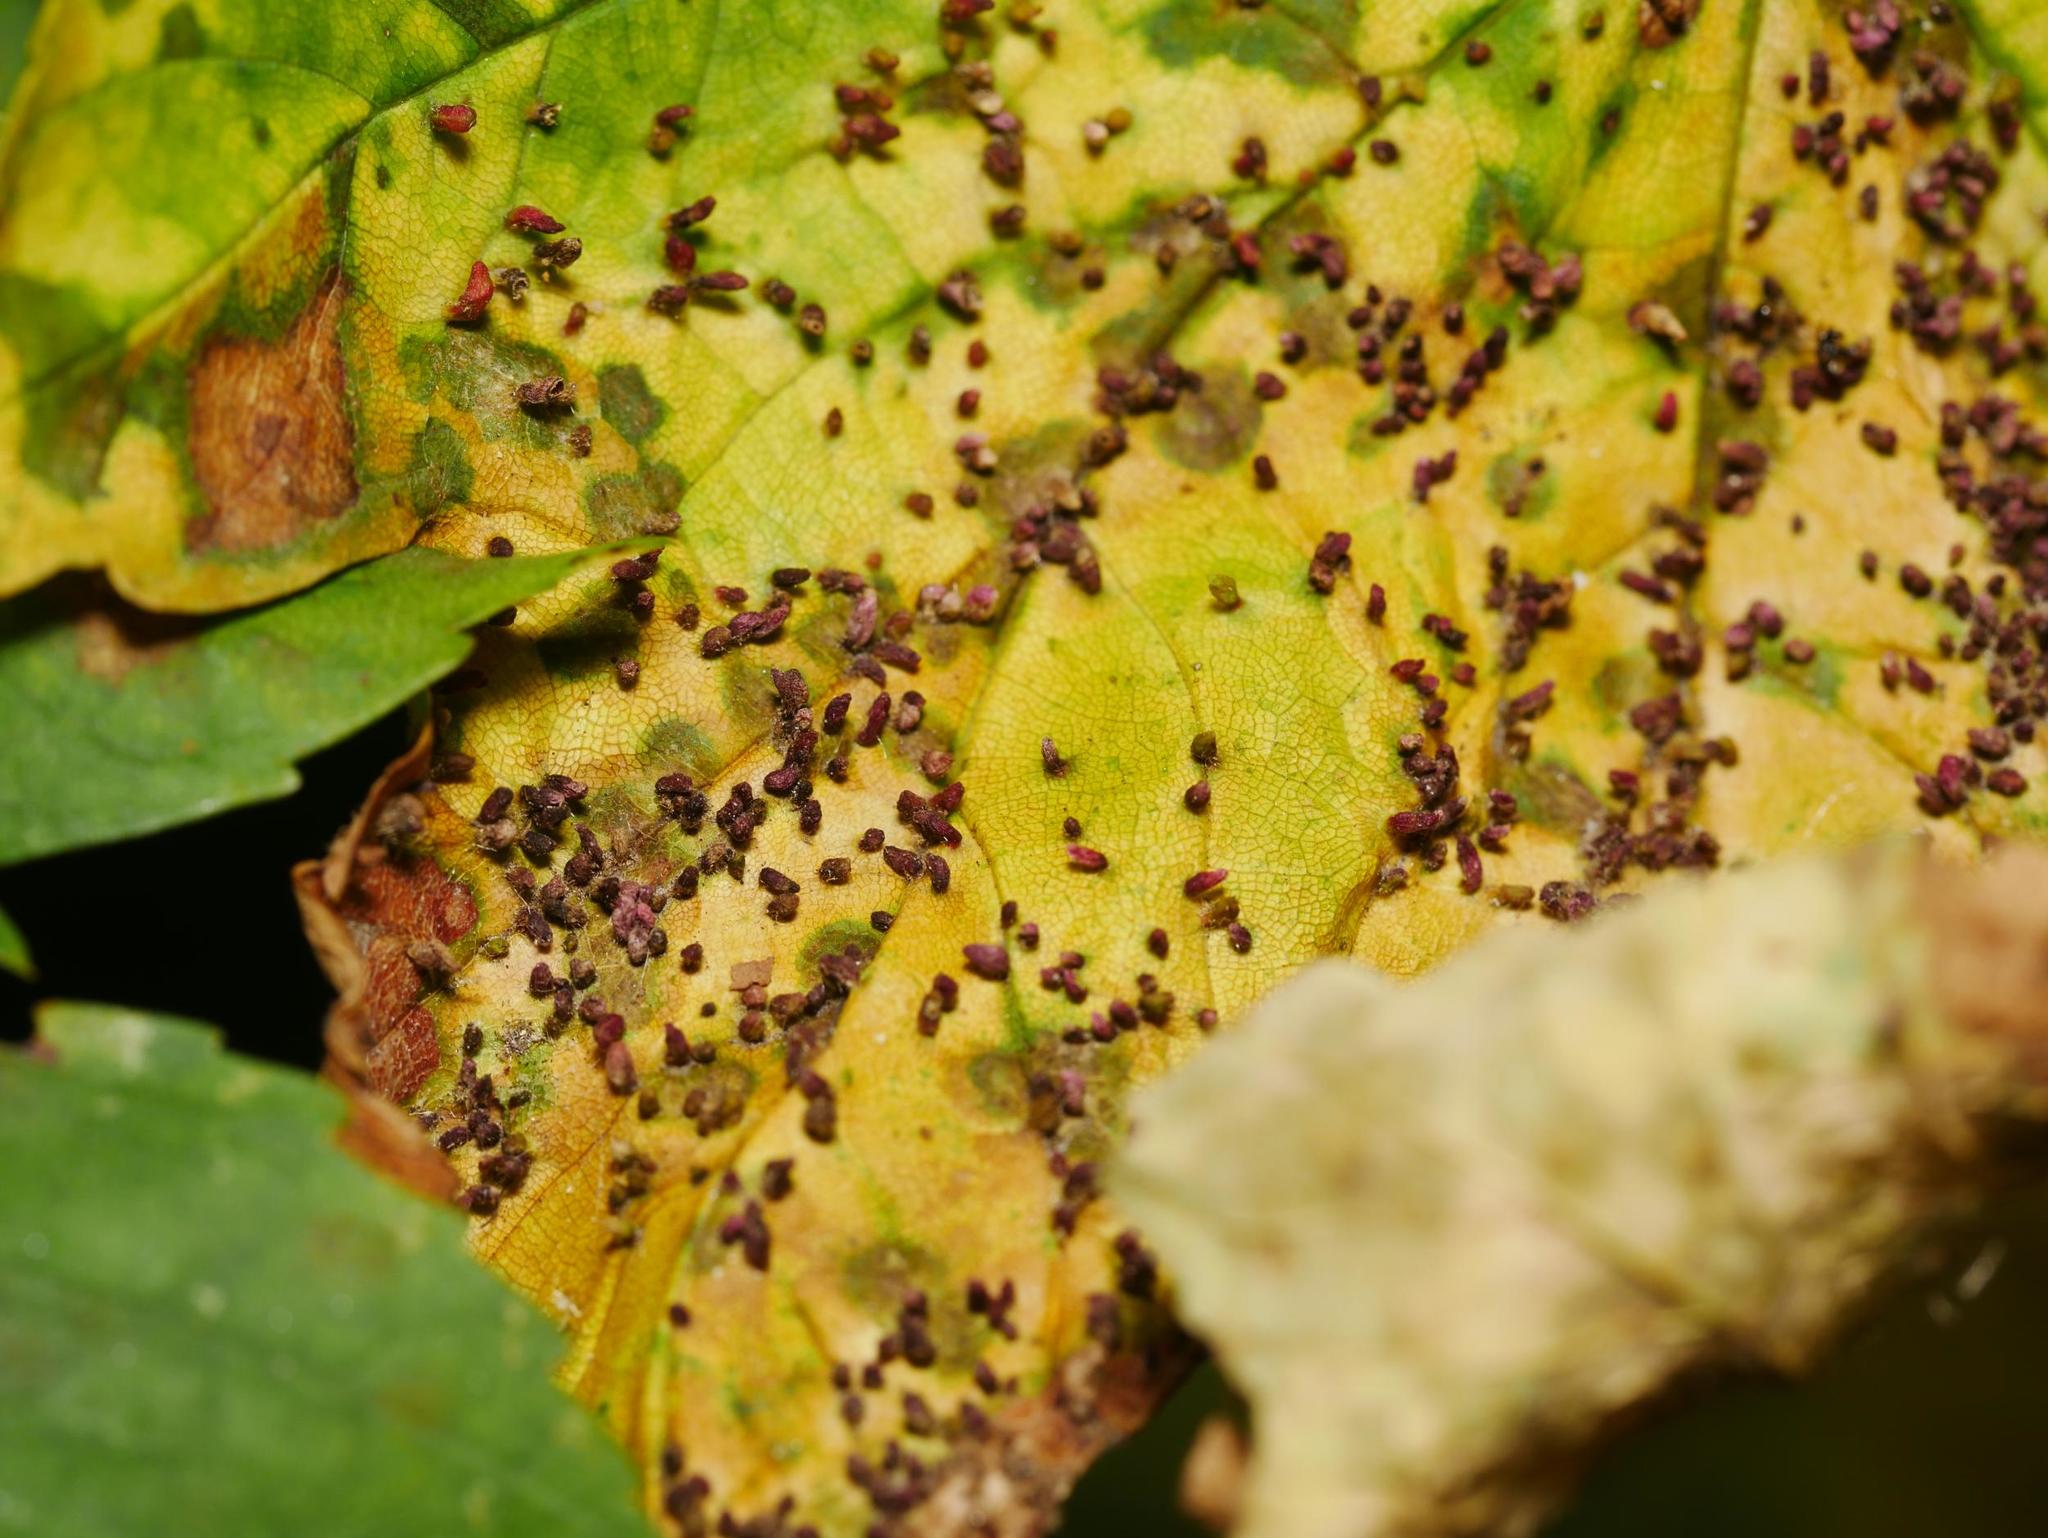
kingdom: Animalia
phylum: Arthropoda
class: Arachnida
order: Trombidiformes
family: Eriophyidae
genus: Aceria
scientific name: Aceria cephaloneus
